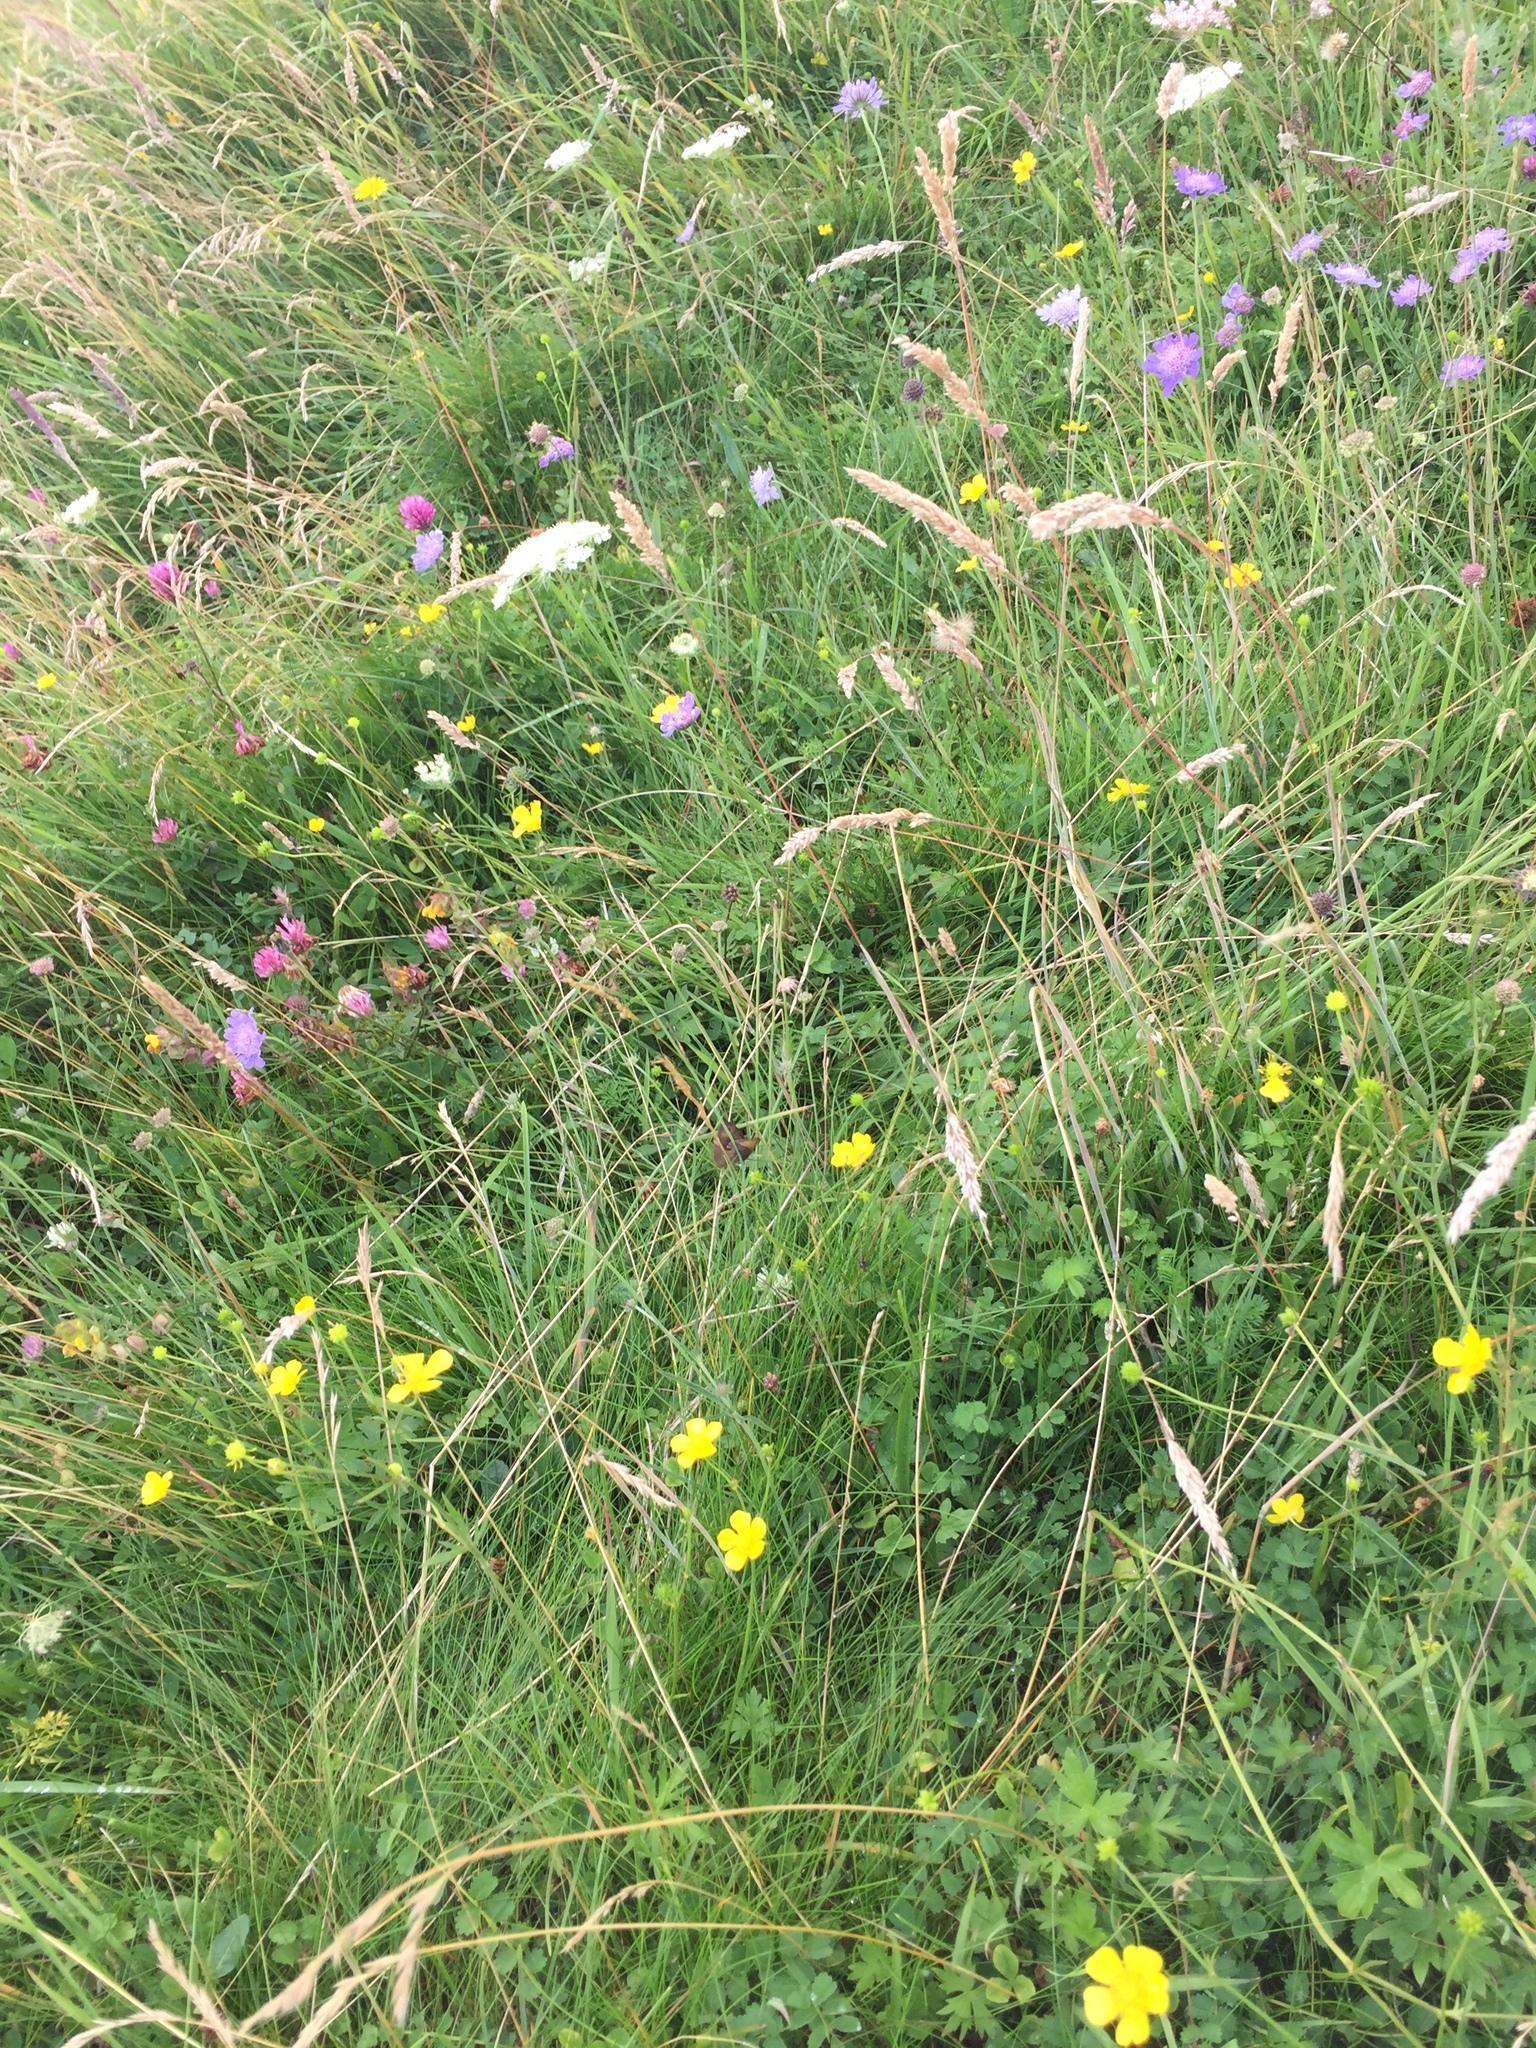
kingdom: Animalia
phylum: Arthropoda
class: Insecta
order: Lepidoptera
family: Nymphalidae
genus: Maniola
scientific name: Maniola jurtina
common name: Meadow brown
